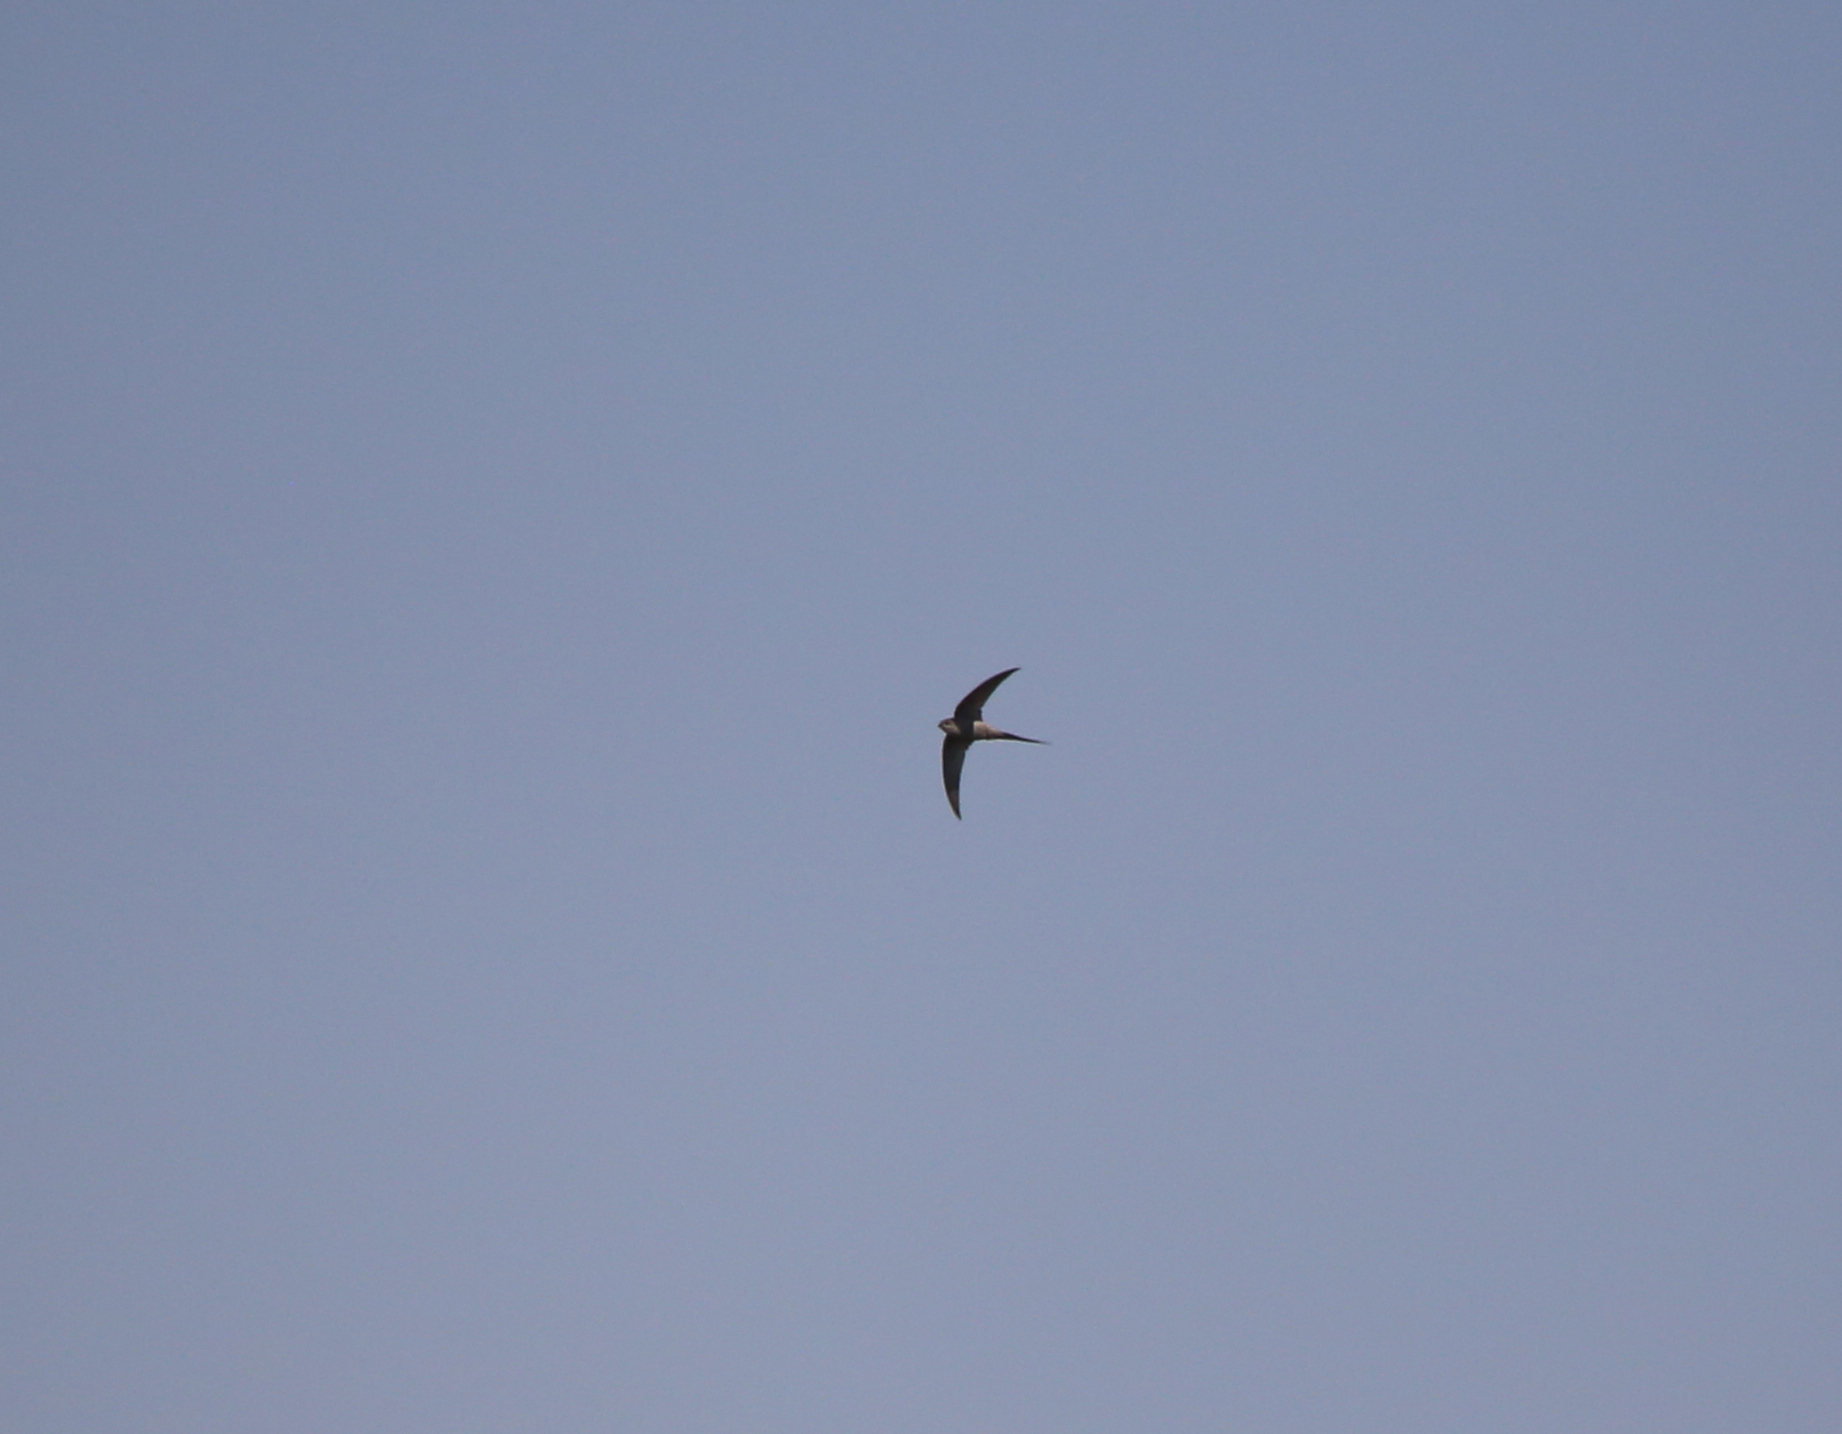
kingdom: Animalia
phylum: Chordata
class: Aves
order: Apodiformes
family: Apodidae
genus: Cypsiurus
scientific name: Cypsiurus parvus
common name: African palm swift
